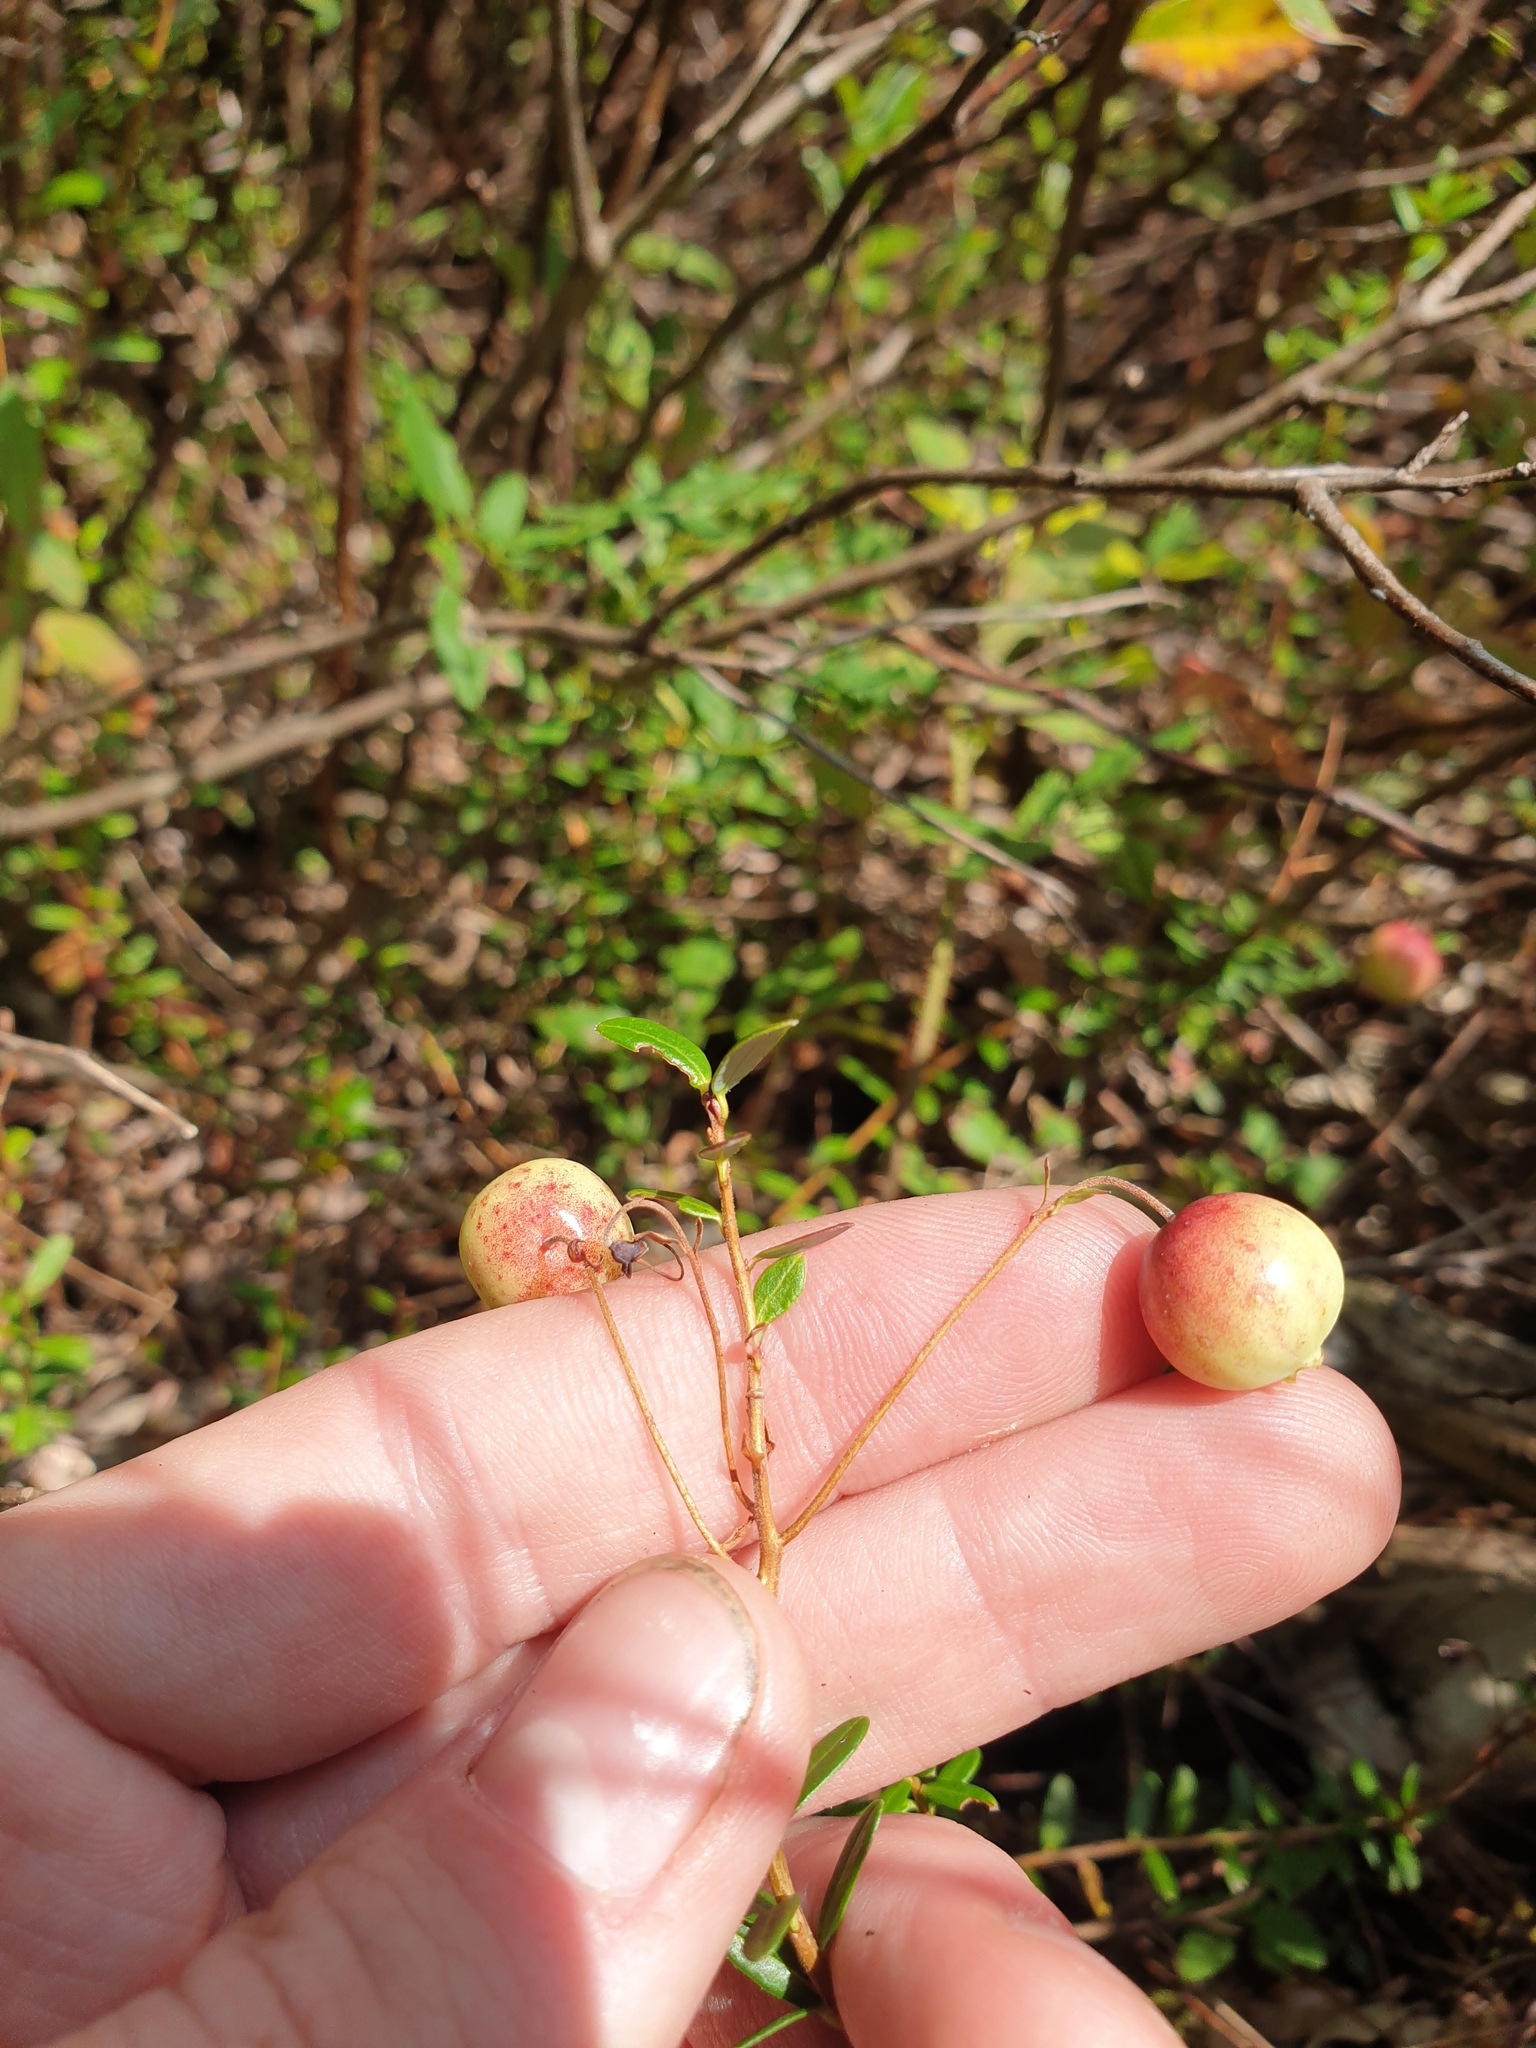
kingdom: Plantae
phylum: Tracheophyta
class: Magnoliopsida
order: Ericales
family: Ericaceae
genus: Vaccinium
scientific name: Vaccinium macrocarpon
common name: American cranberry
